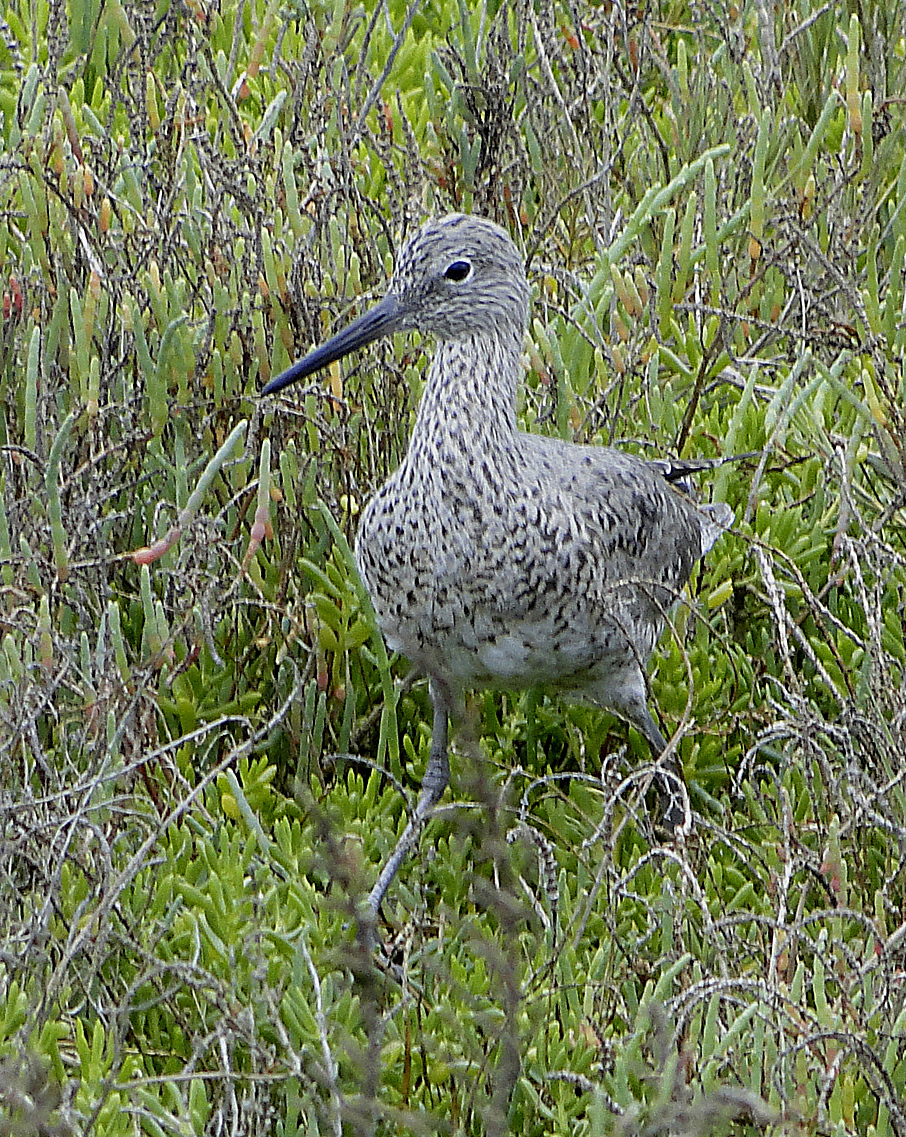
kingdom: Animalia
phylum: Chordata
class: Aves
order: Charadriiformes
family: Scolopacidae
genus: Tringa
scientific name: Tringa semipalmata
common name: Willet
